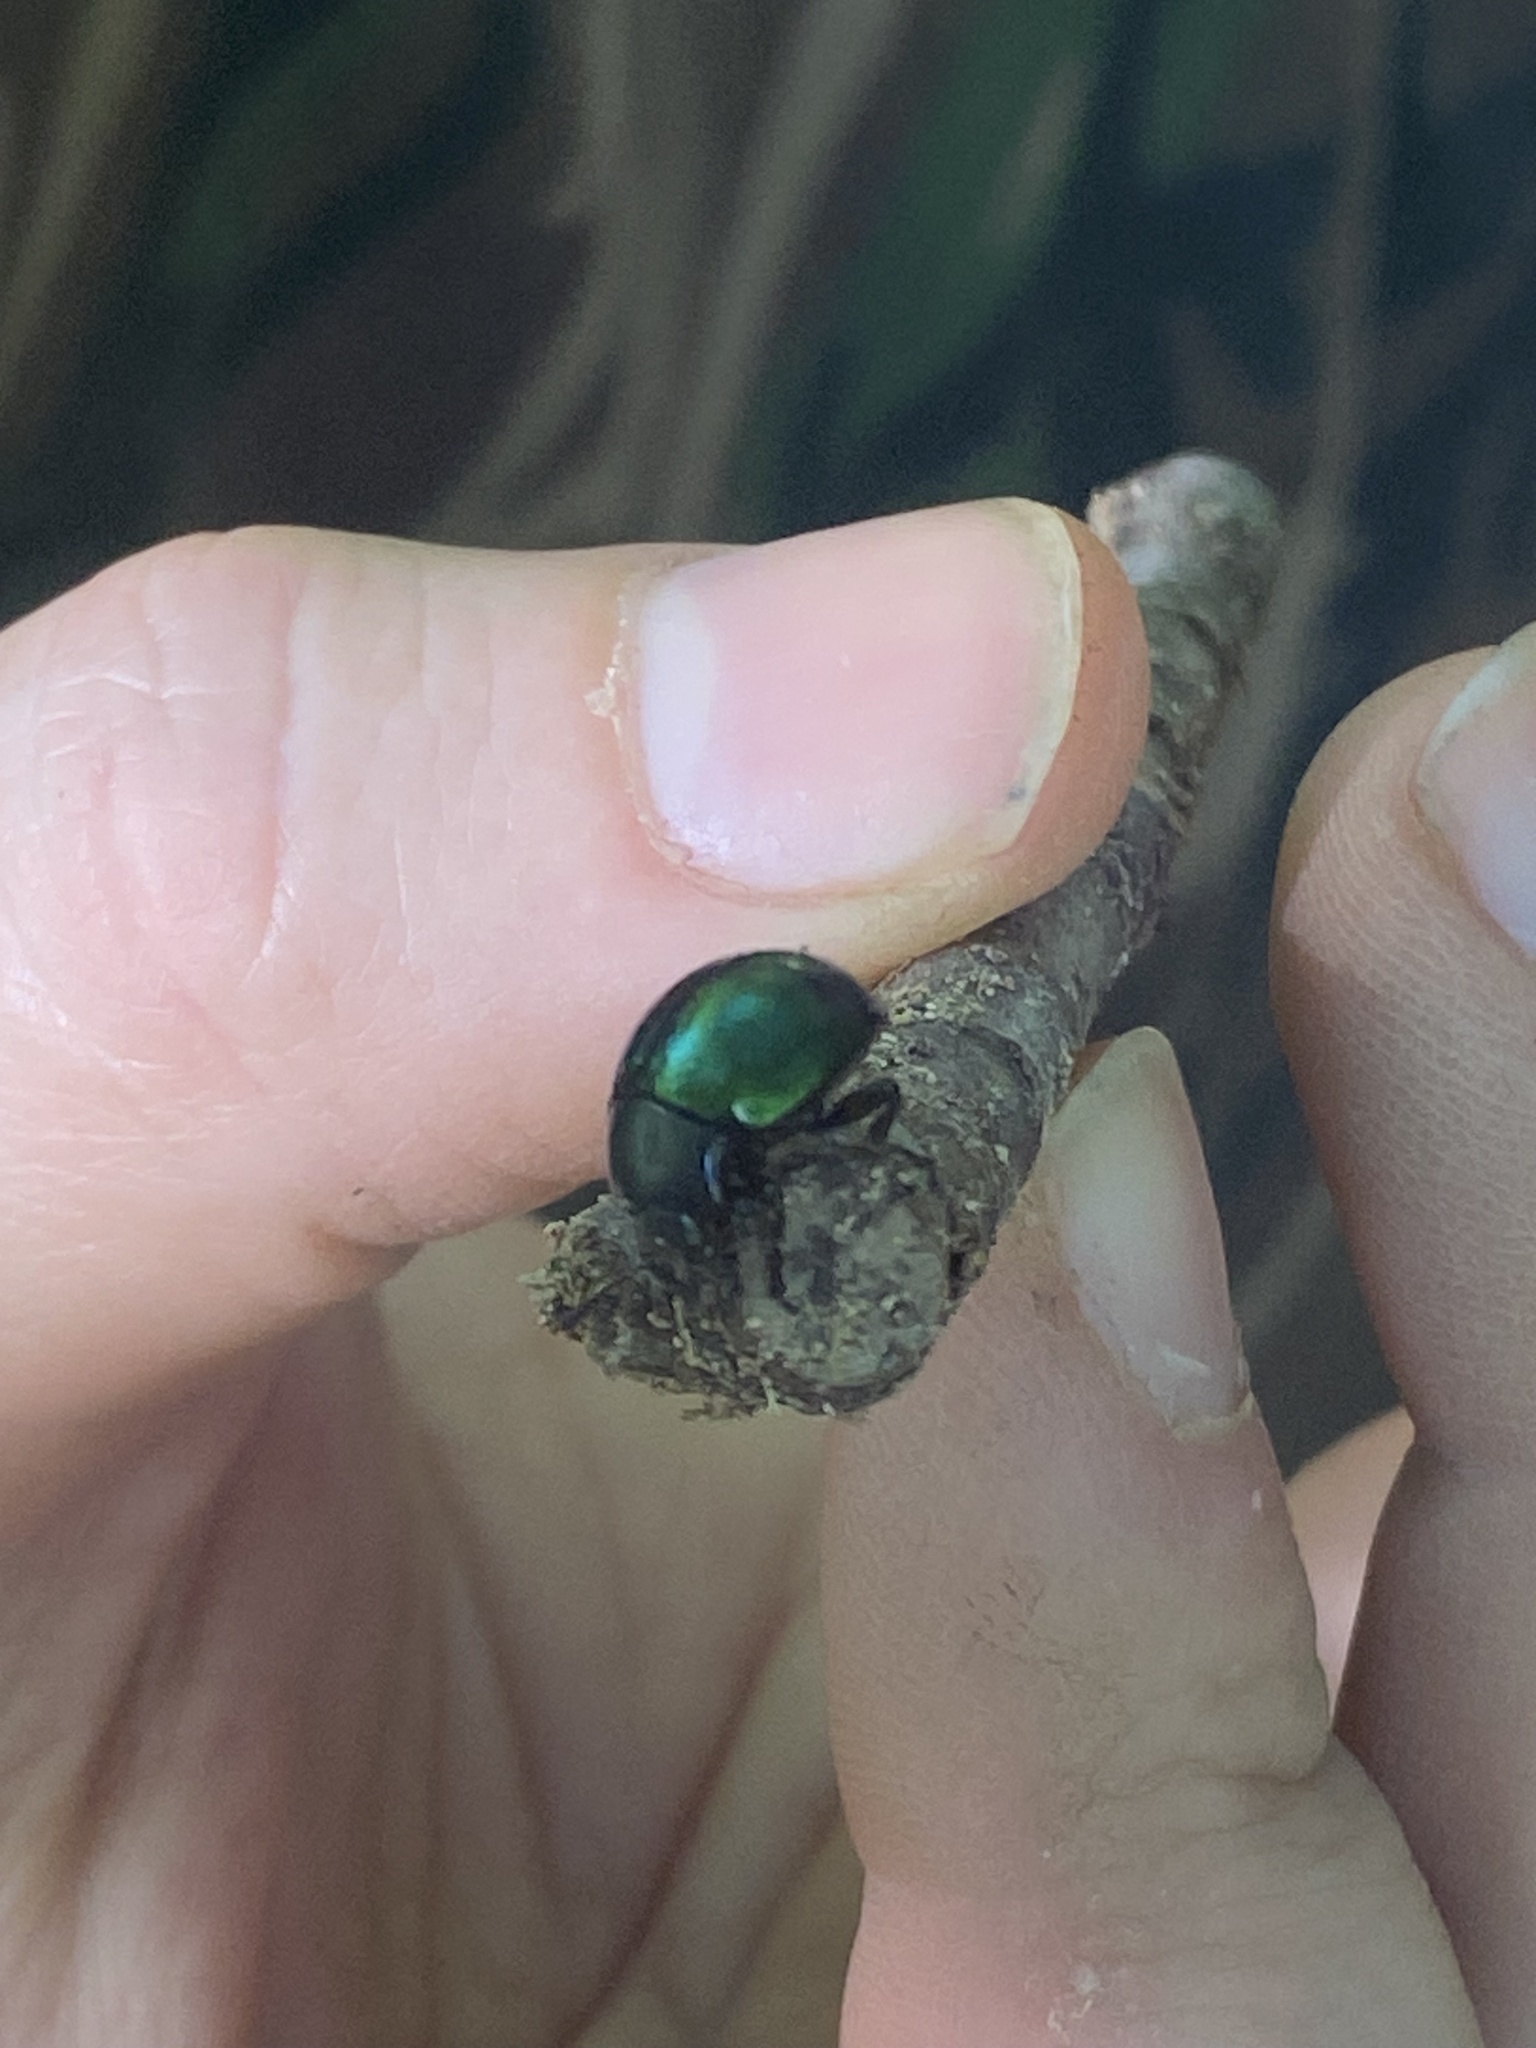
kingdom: Animalia
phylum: Arthropoda
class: Insecta
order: Coleoptera
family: Chrysomelidae
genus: Leptinotarsa
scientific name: Leptinotarsa haldemani
